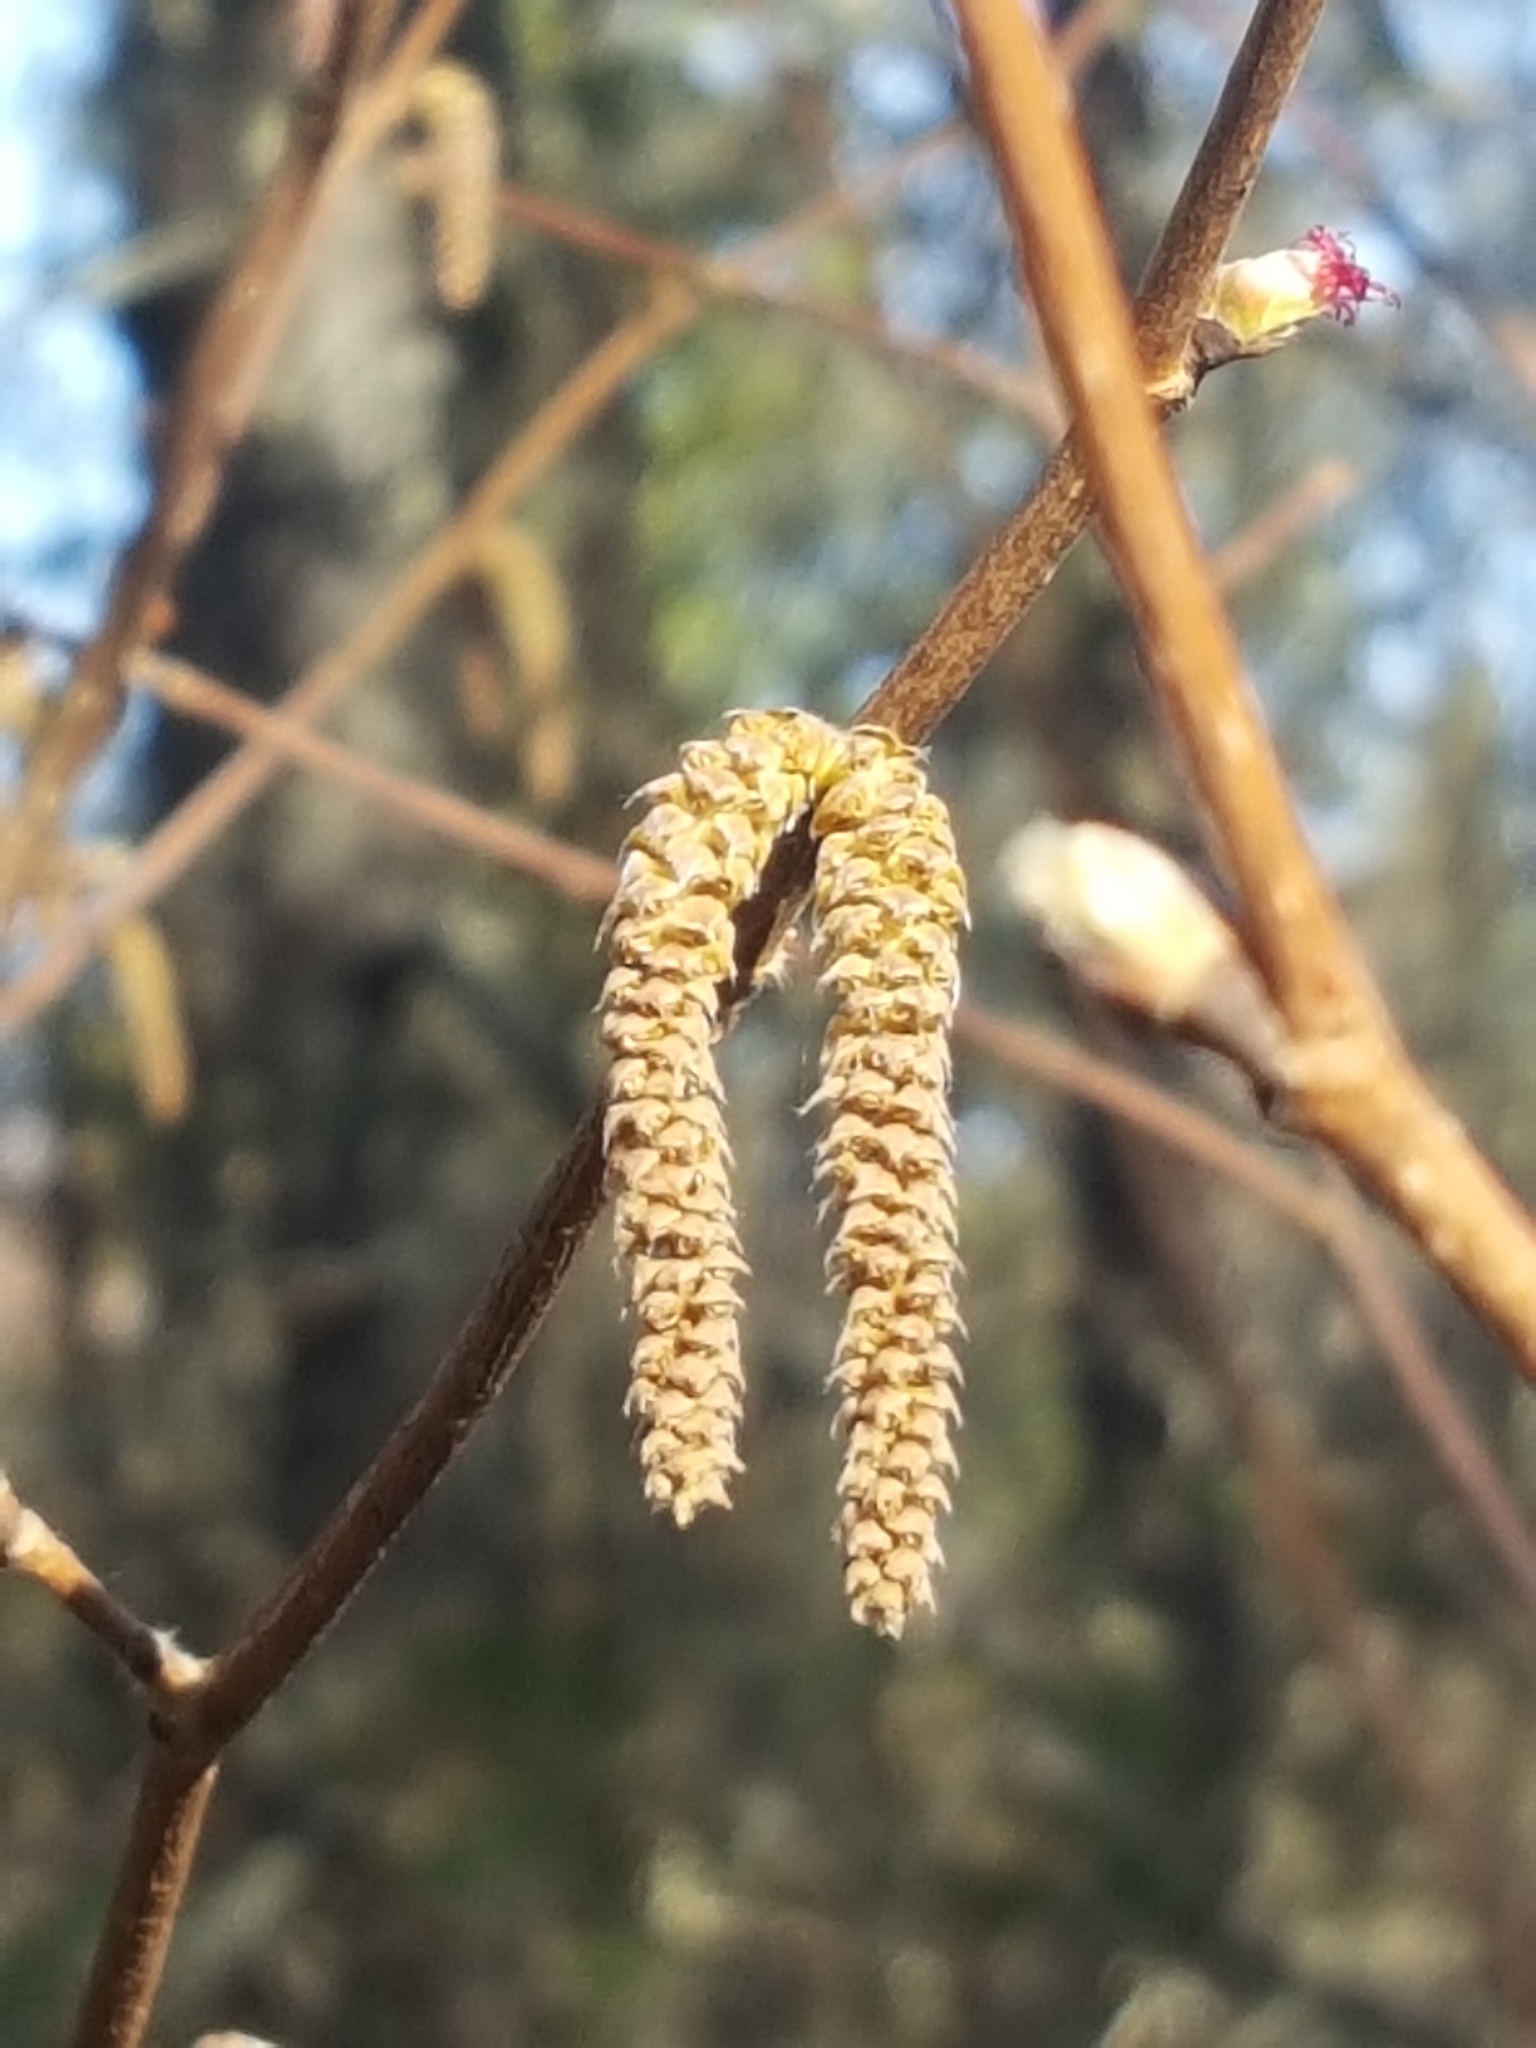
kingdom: Plantae
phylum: Tracheophyta
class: Magnoliopsida
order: Fagales
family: Betulaceae
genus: Corylus
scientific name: Corylus cornuta
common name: Beaked hazel
